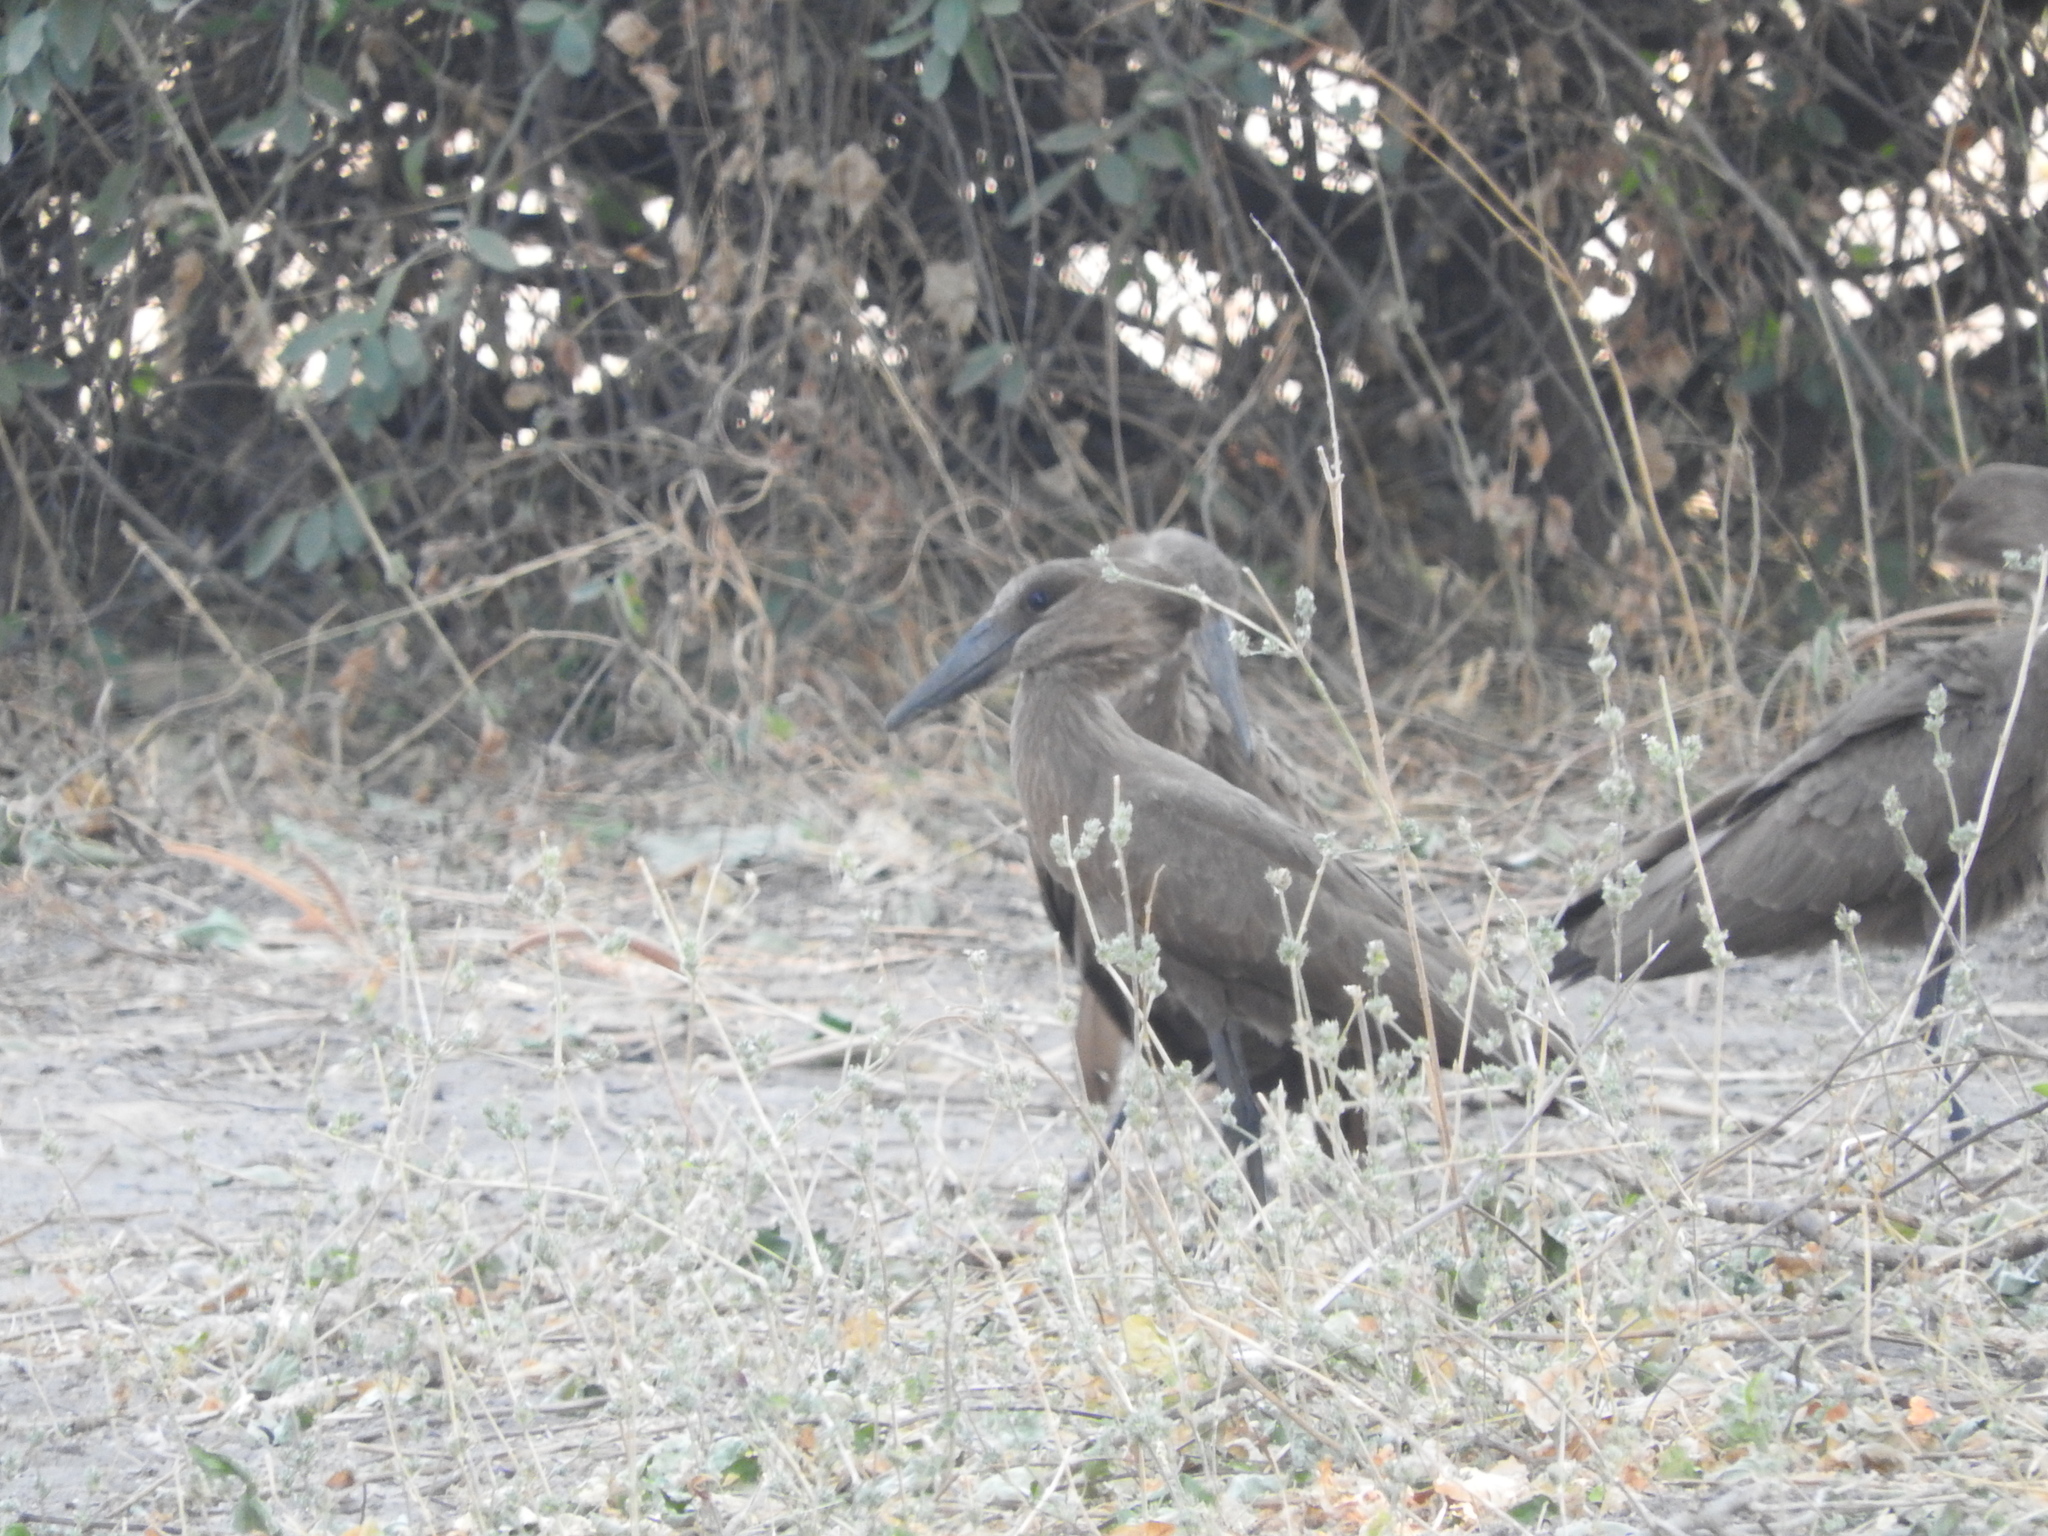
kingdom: Animalia
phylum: Chordata
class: Aves
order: Pelecaniformes
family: Scopidae
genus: Scopus
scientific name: Scopus umbretta
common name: Hamerkop
